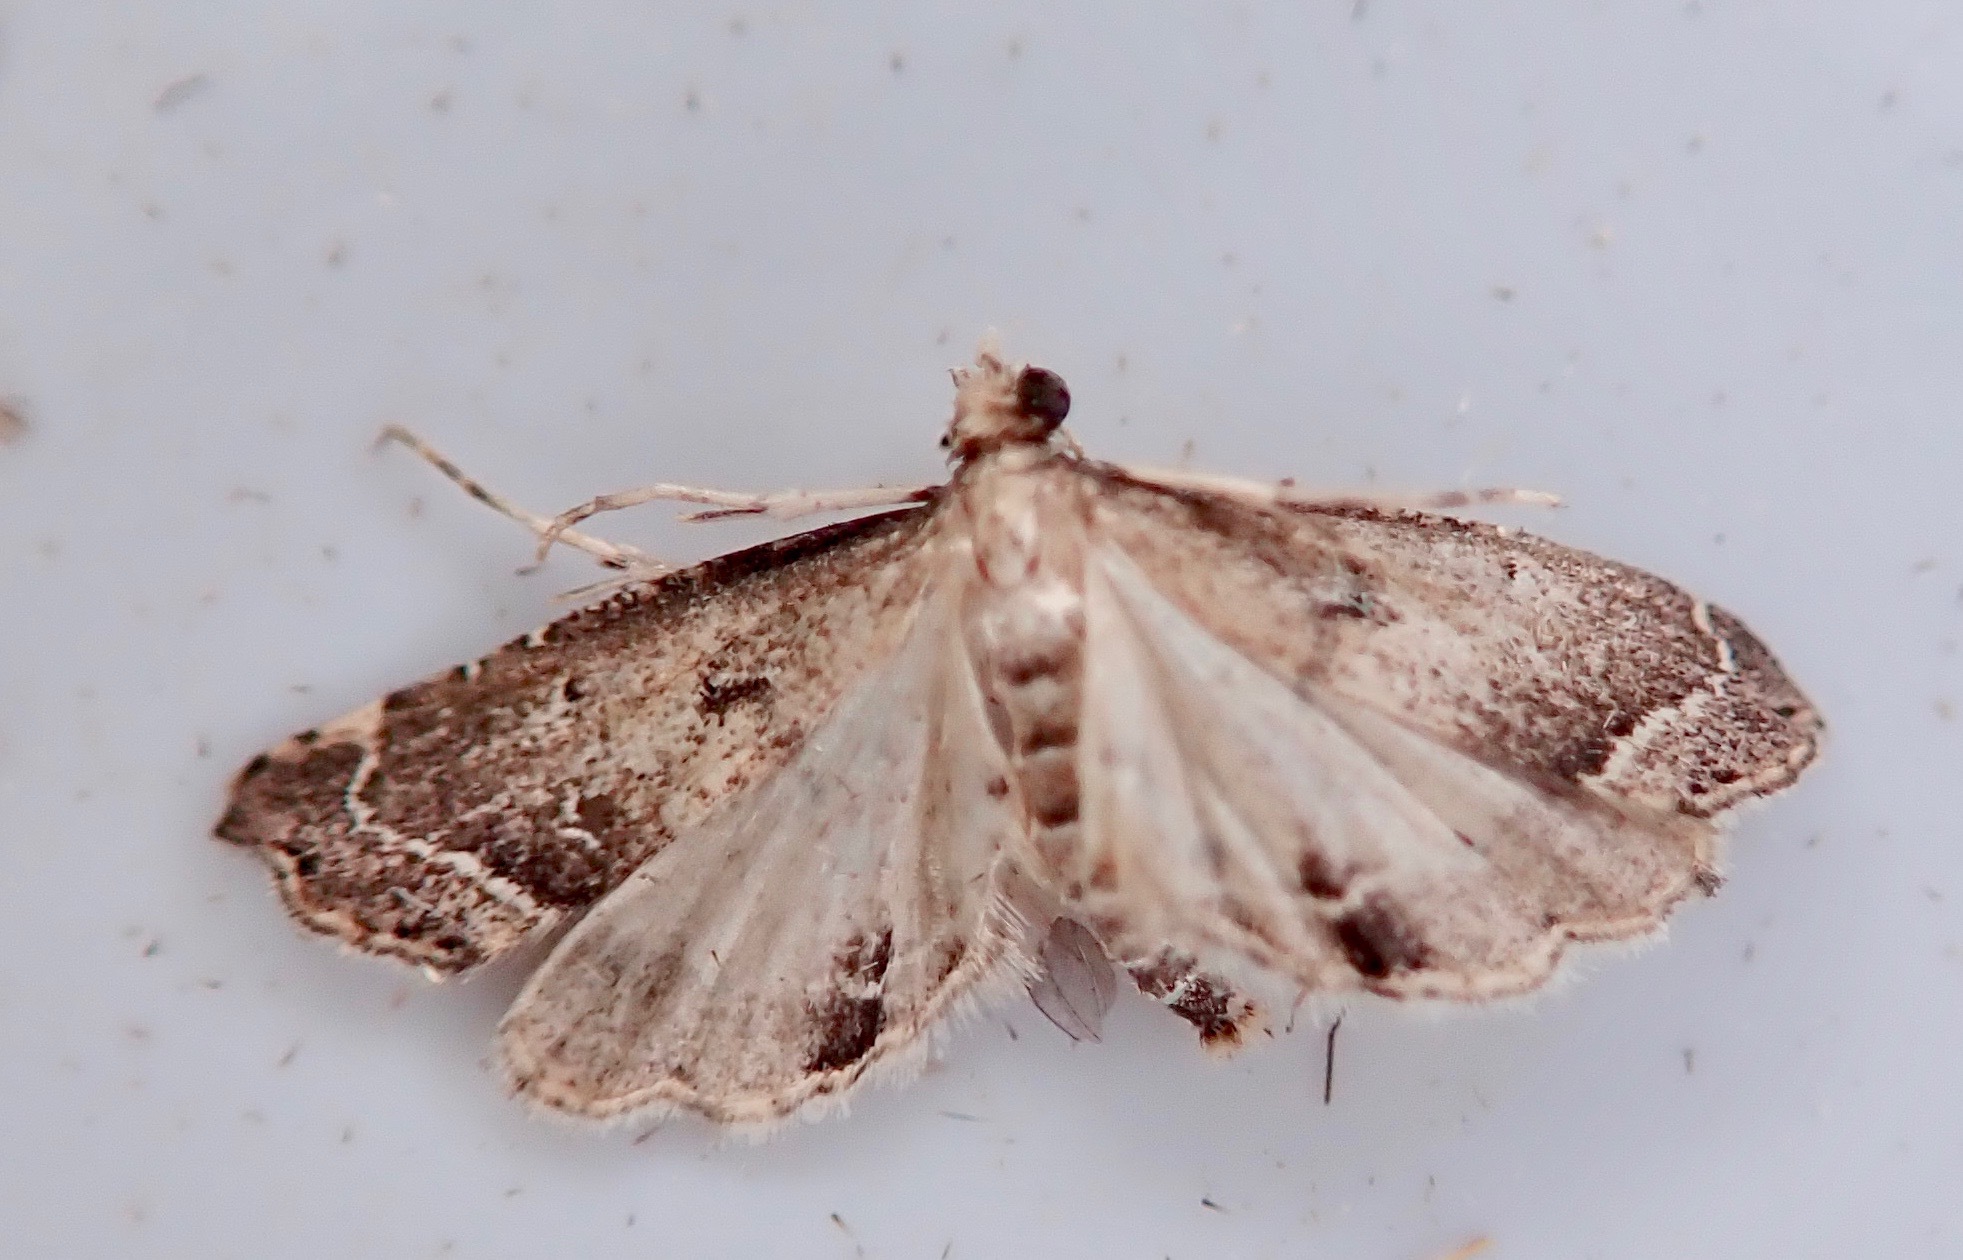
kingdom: Animalia
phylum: Arthropoda
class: Insecta
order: Lepidoptera
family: Crambidae
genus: Diplopseustis
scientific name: Diplopseustis perieresalis
